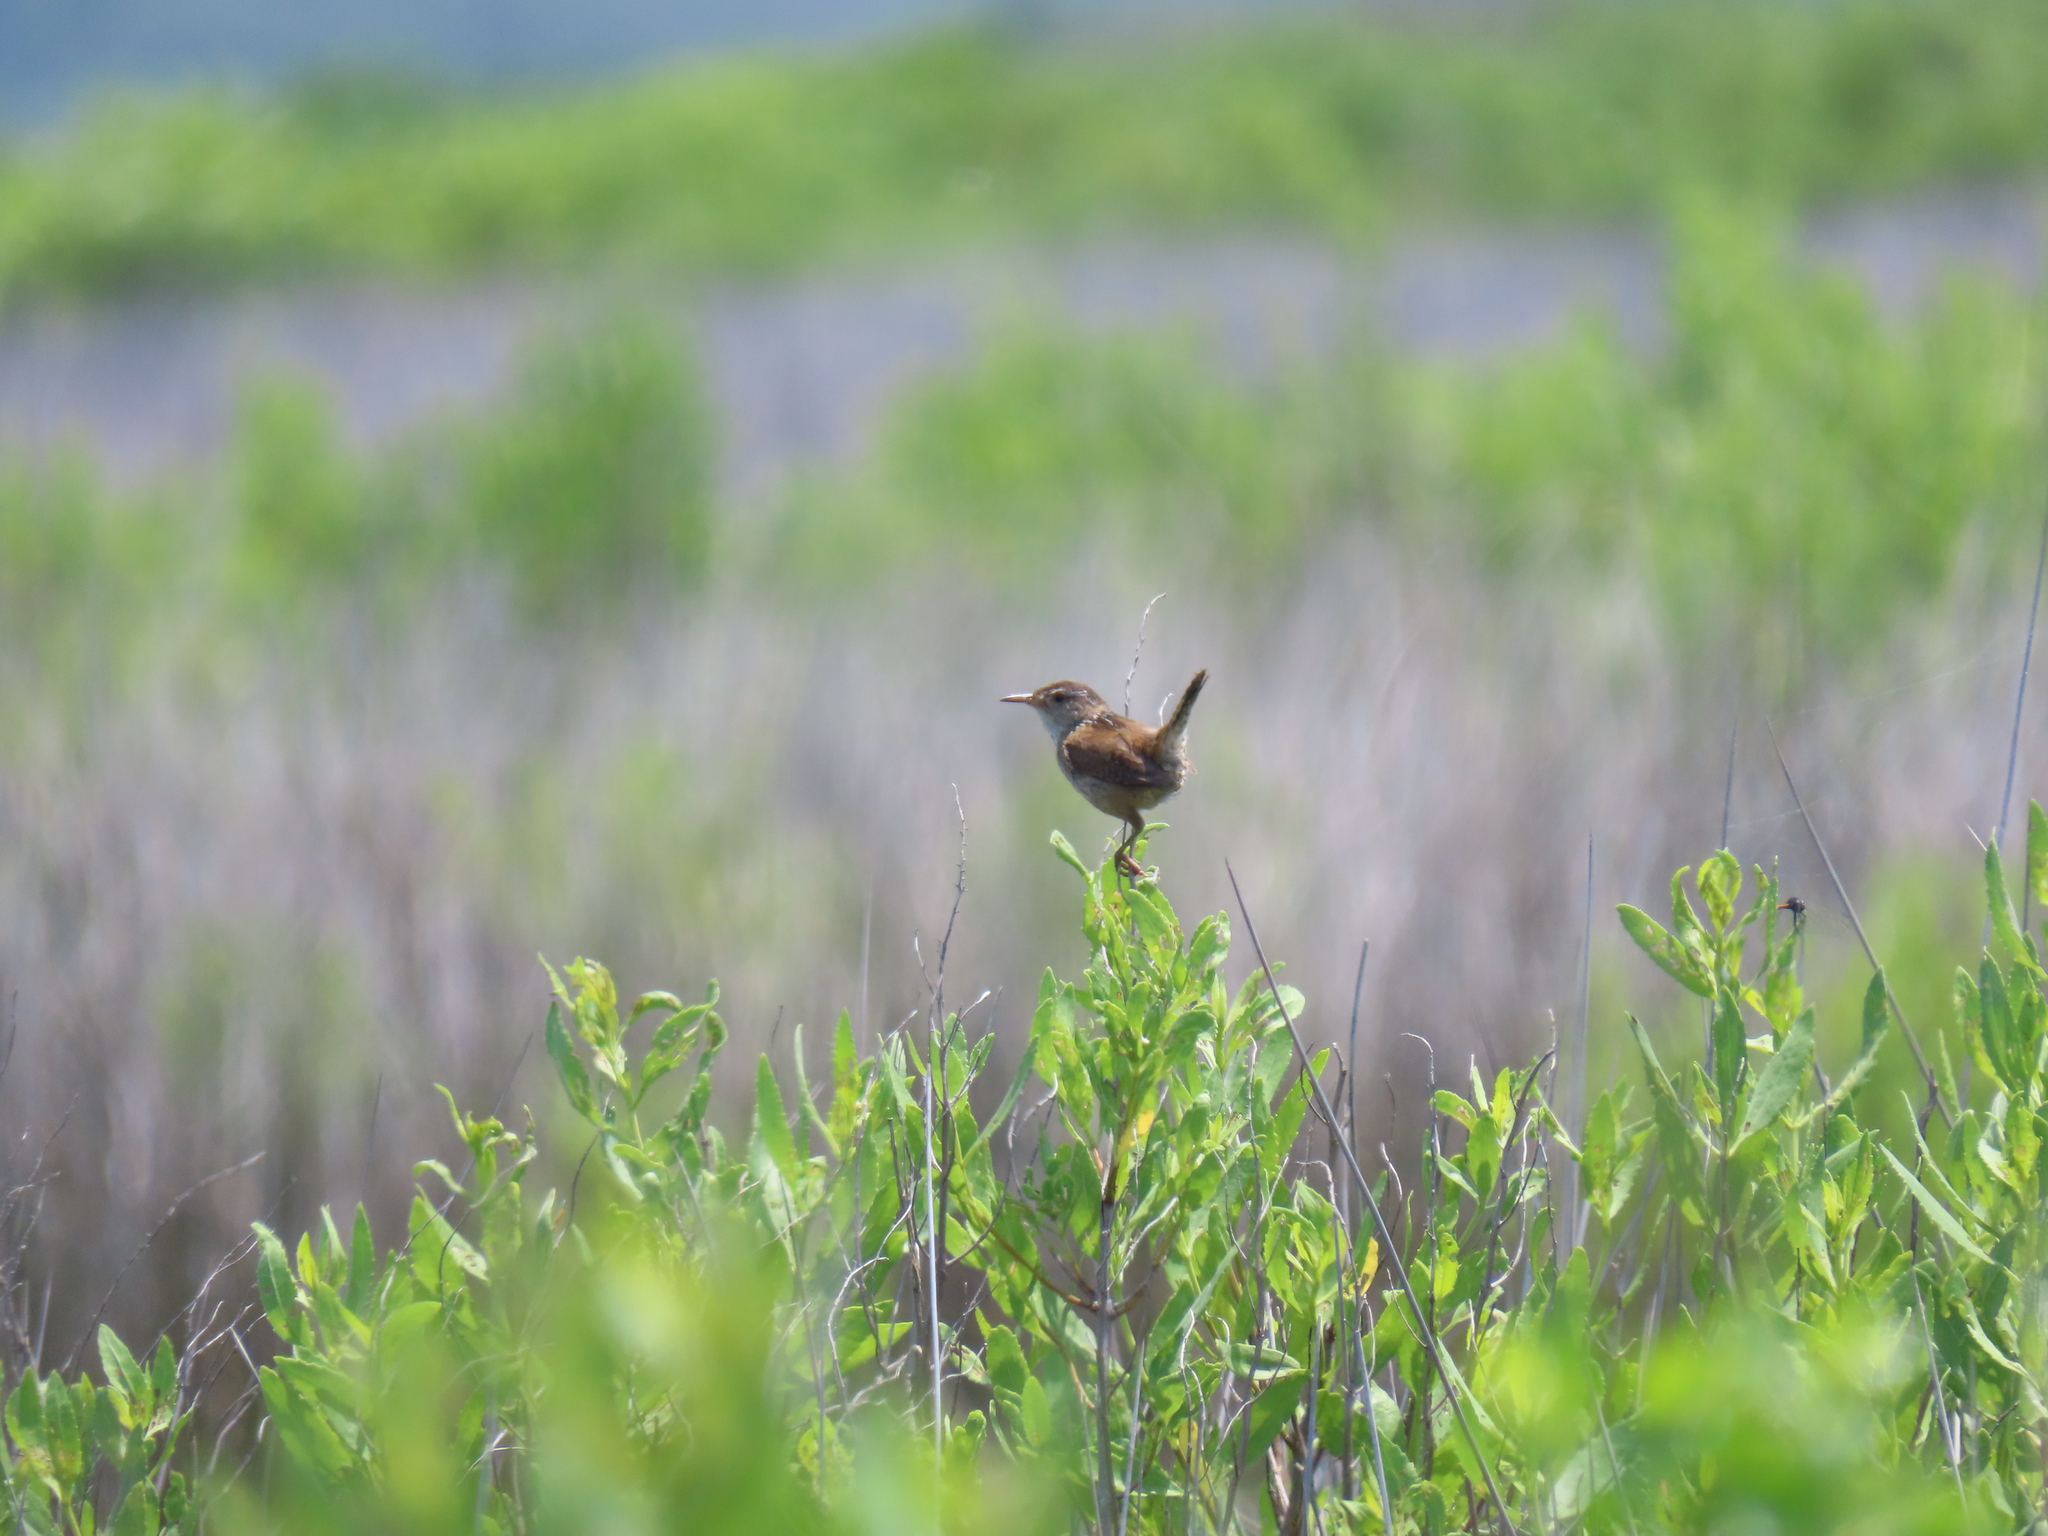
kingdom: Animalia
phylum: Chordata
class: Aves
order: Passeriformes
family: Troglodytidae
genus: Cistothorus
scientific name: Cistothorus palustris
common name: Marsh wren
